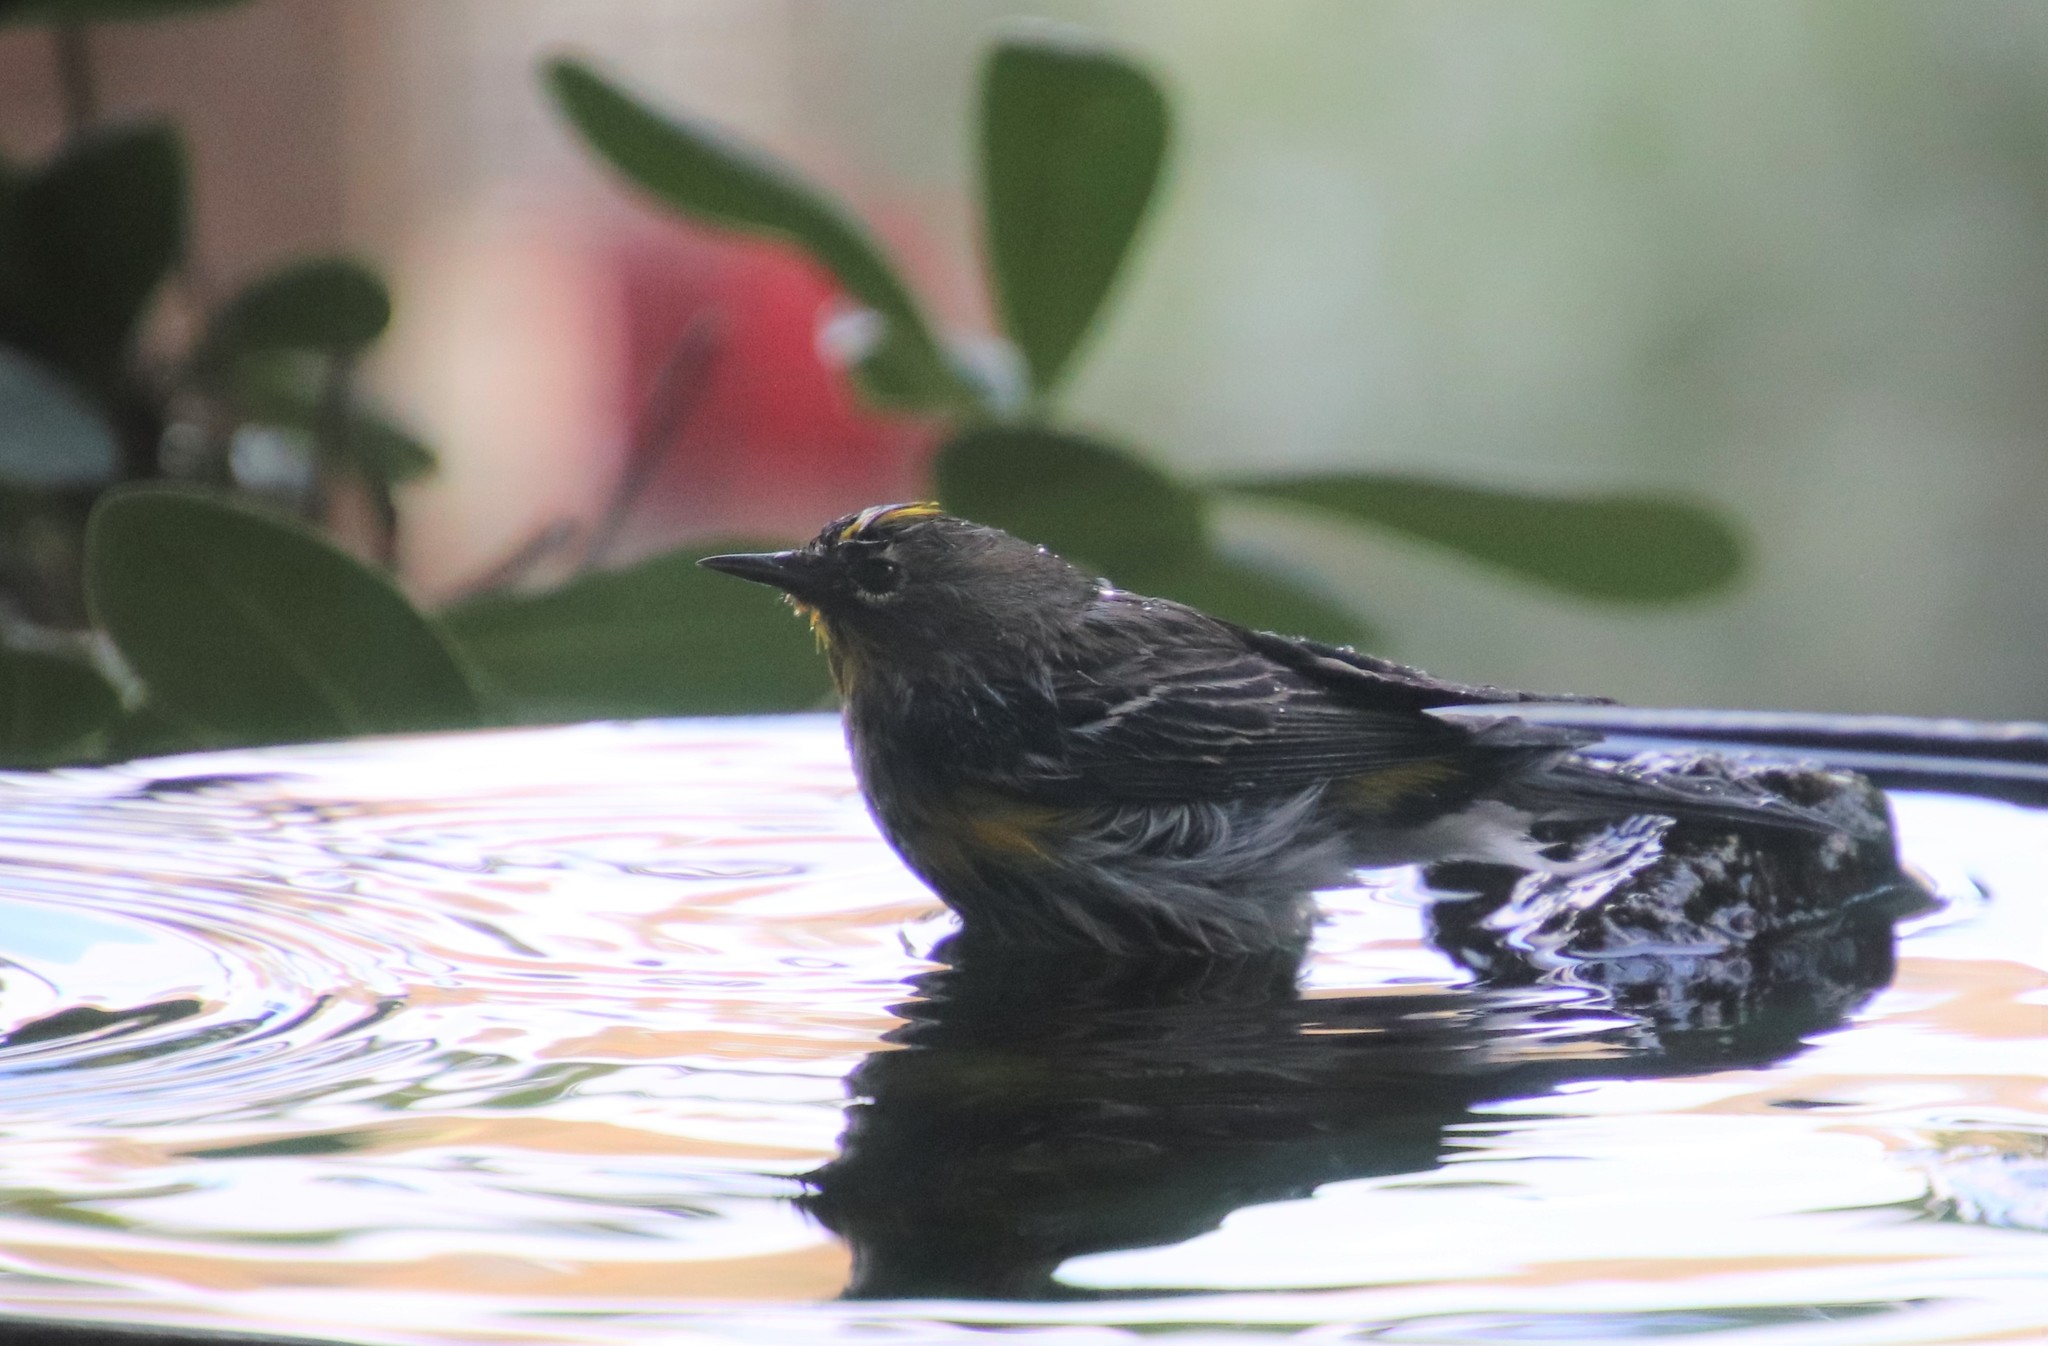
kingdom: Animalia
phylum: Chordata
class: Aves
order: Passeriformes
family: Parulidae
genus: Setophaga
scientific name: Setophaga auduboni
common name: Audubon's warbler
